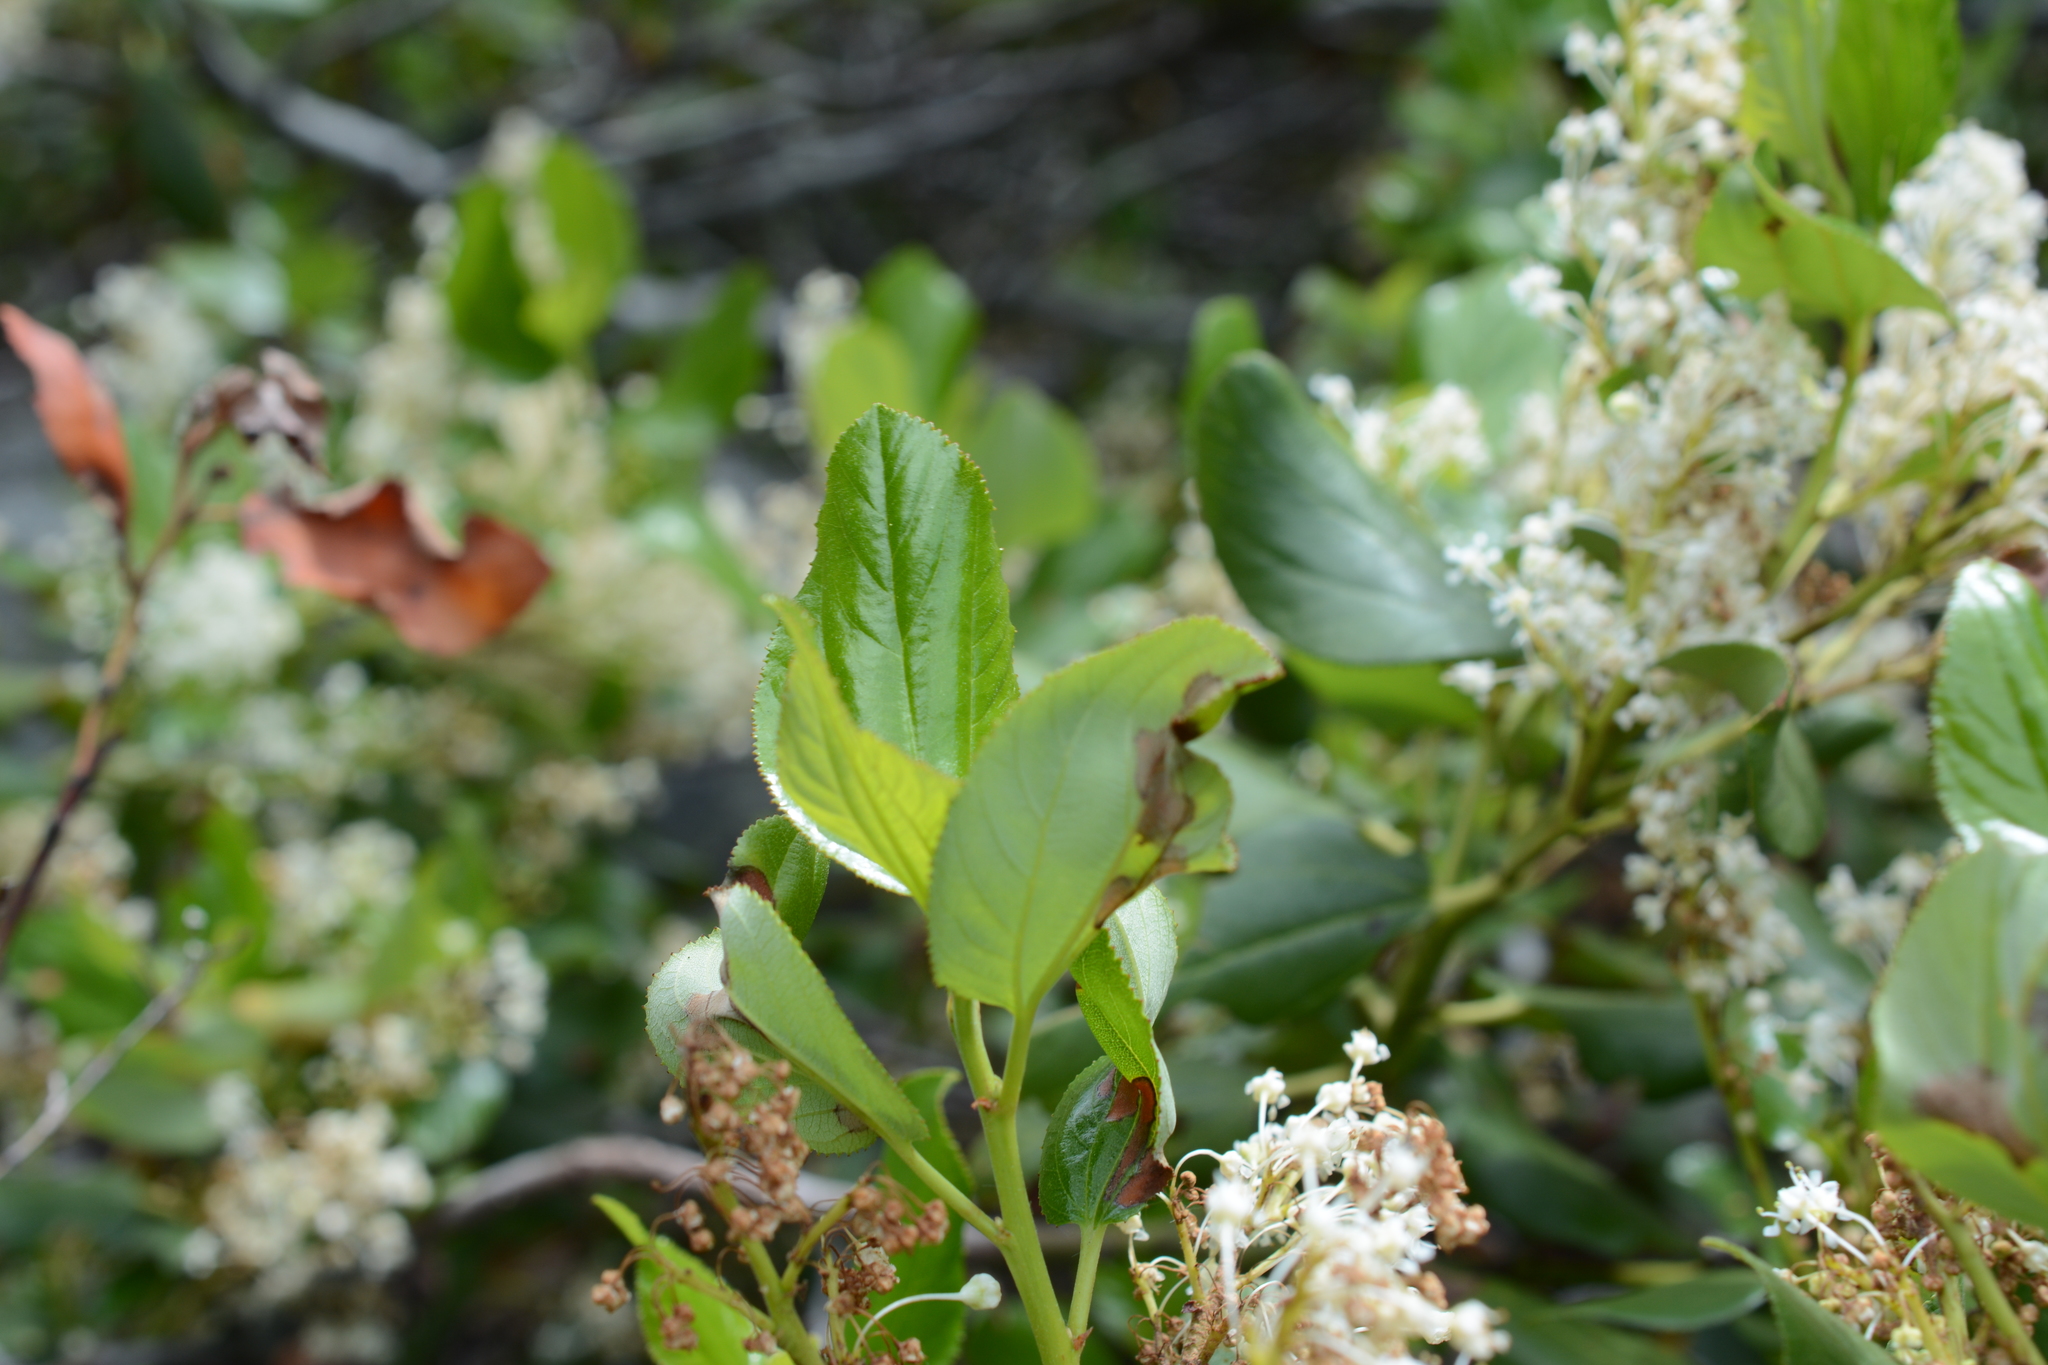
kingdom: Plantae
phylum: Tracheophyta
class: Magnoliopsida
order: Rosales
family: Rhamnaceae
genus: Ceanothus
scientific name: Ceanothus velutinus
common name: Snowbrush
